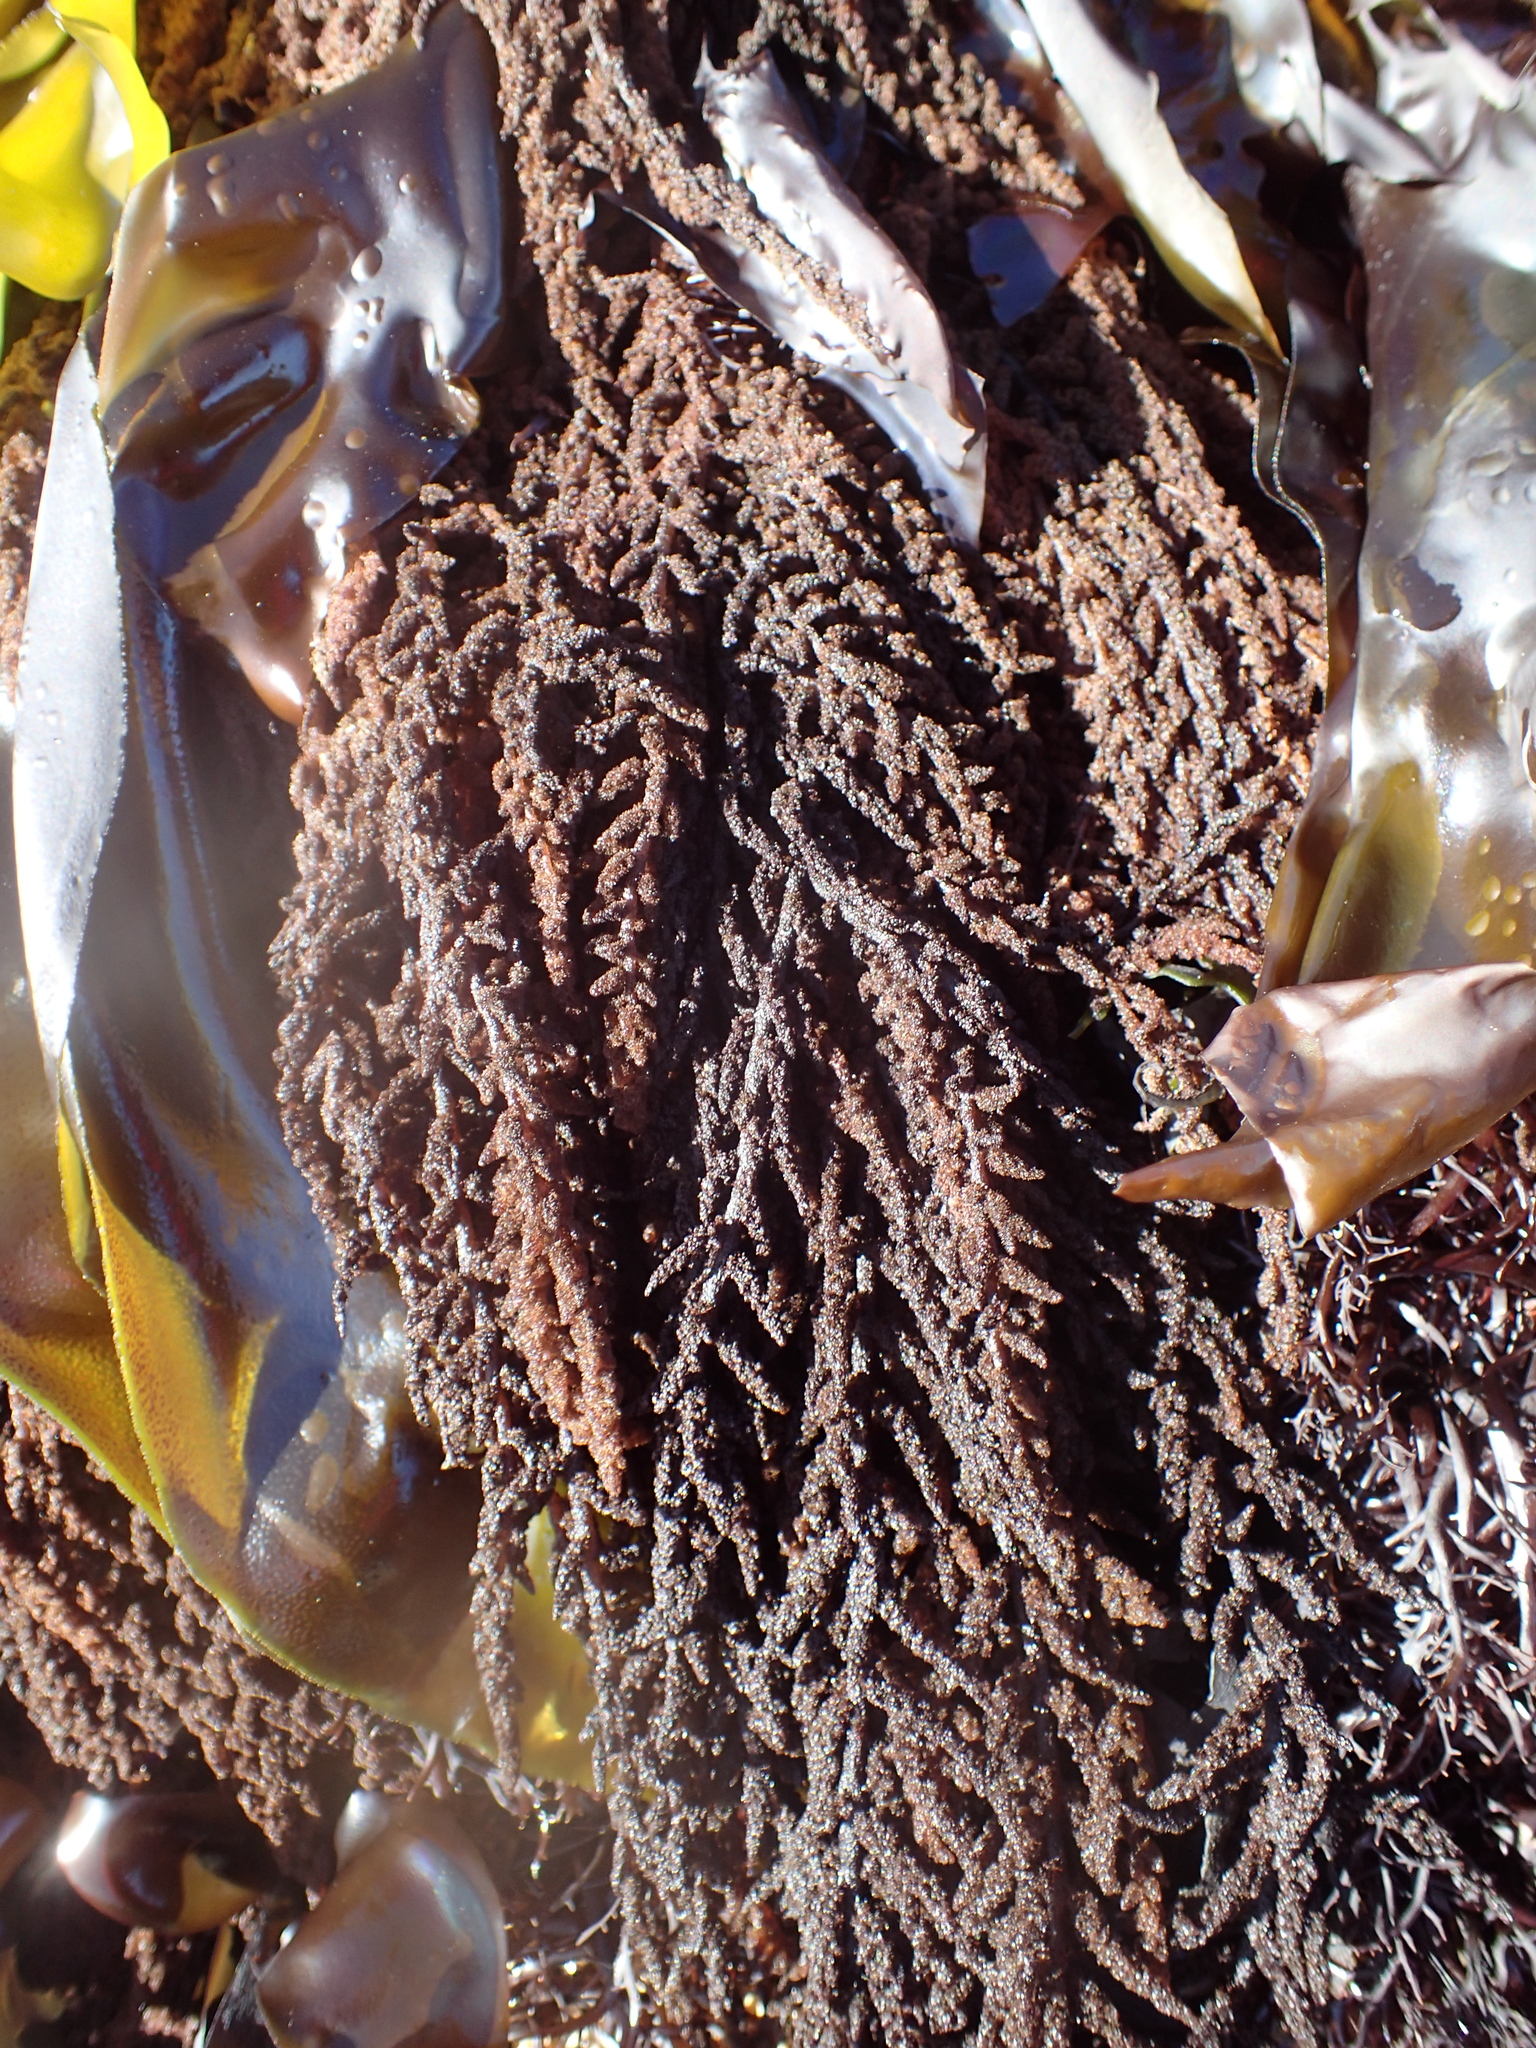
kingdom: Plantae
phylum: Rhodophyta
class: Florideophyceae
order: Ceramiales
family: Callithamniaceae
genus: Callithamnion
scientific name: Callithamnion pikeanum
